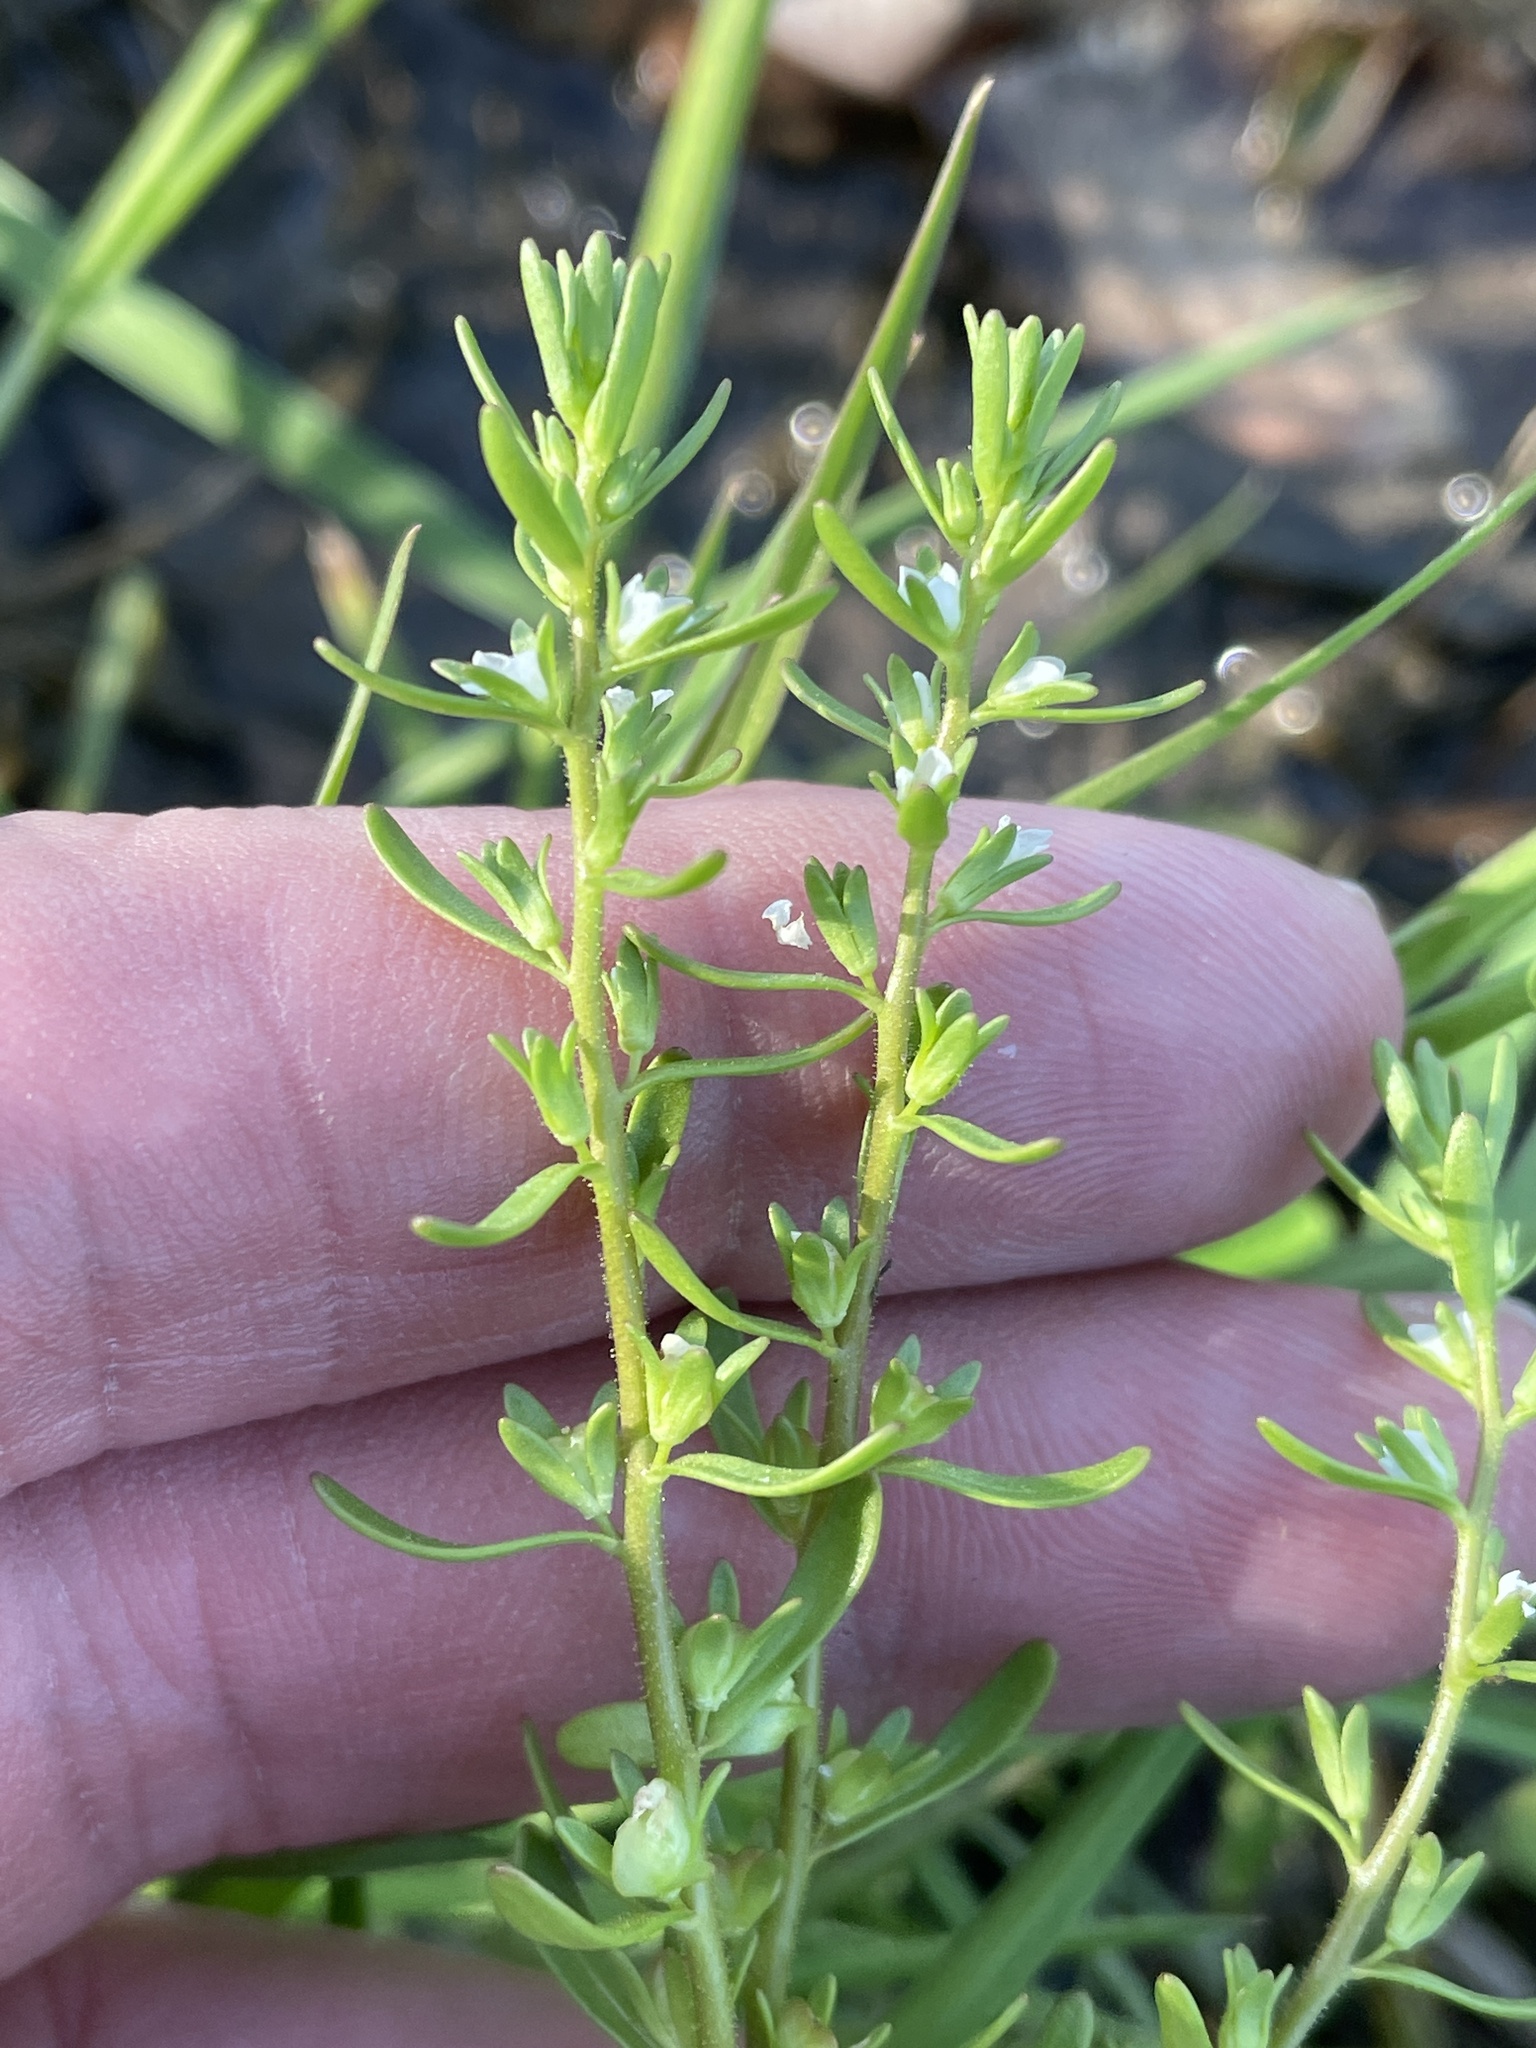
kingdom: Plantae
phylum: Tracheophyta
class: Magnoliopsida
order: Lamiales
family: Plantaginaceae
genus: Veronica
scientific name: Veronica peregrina
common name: Neckweed
